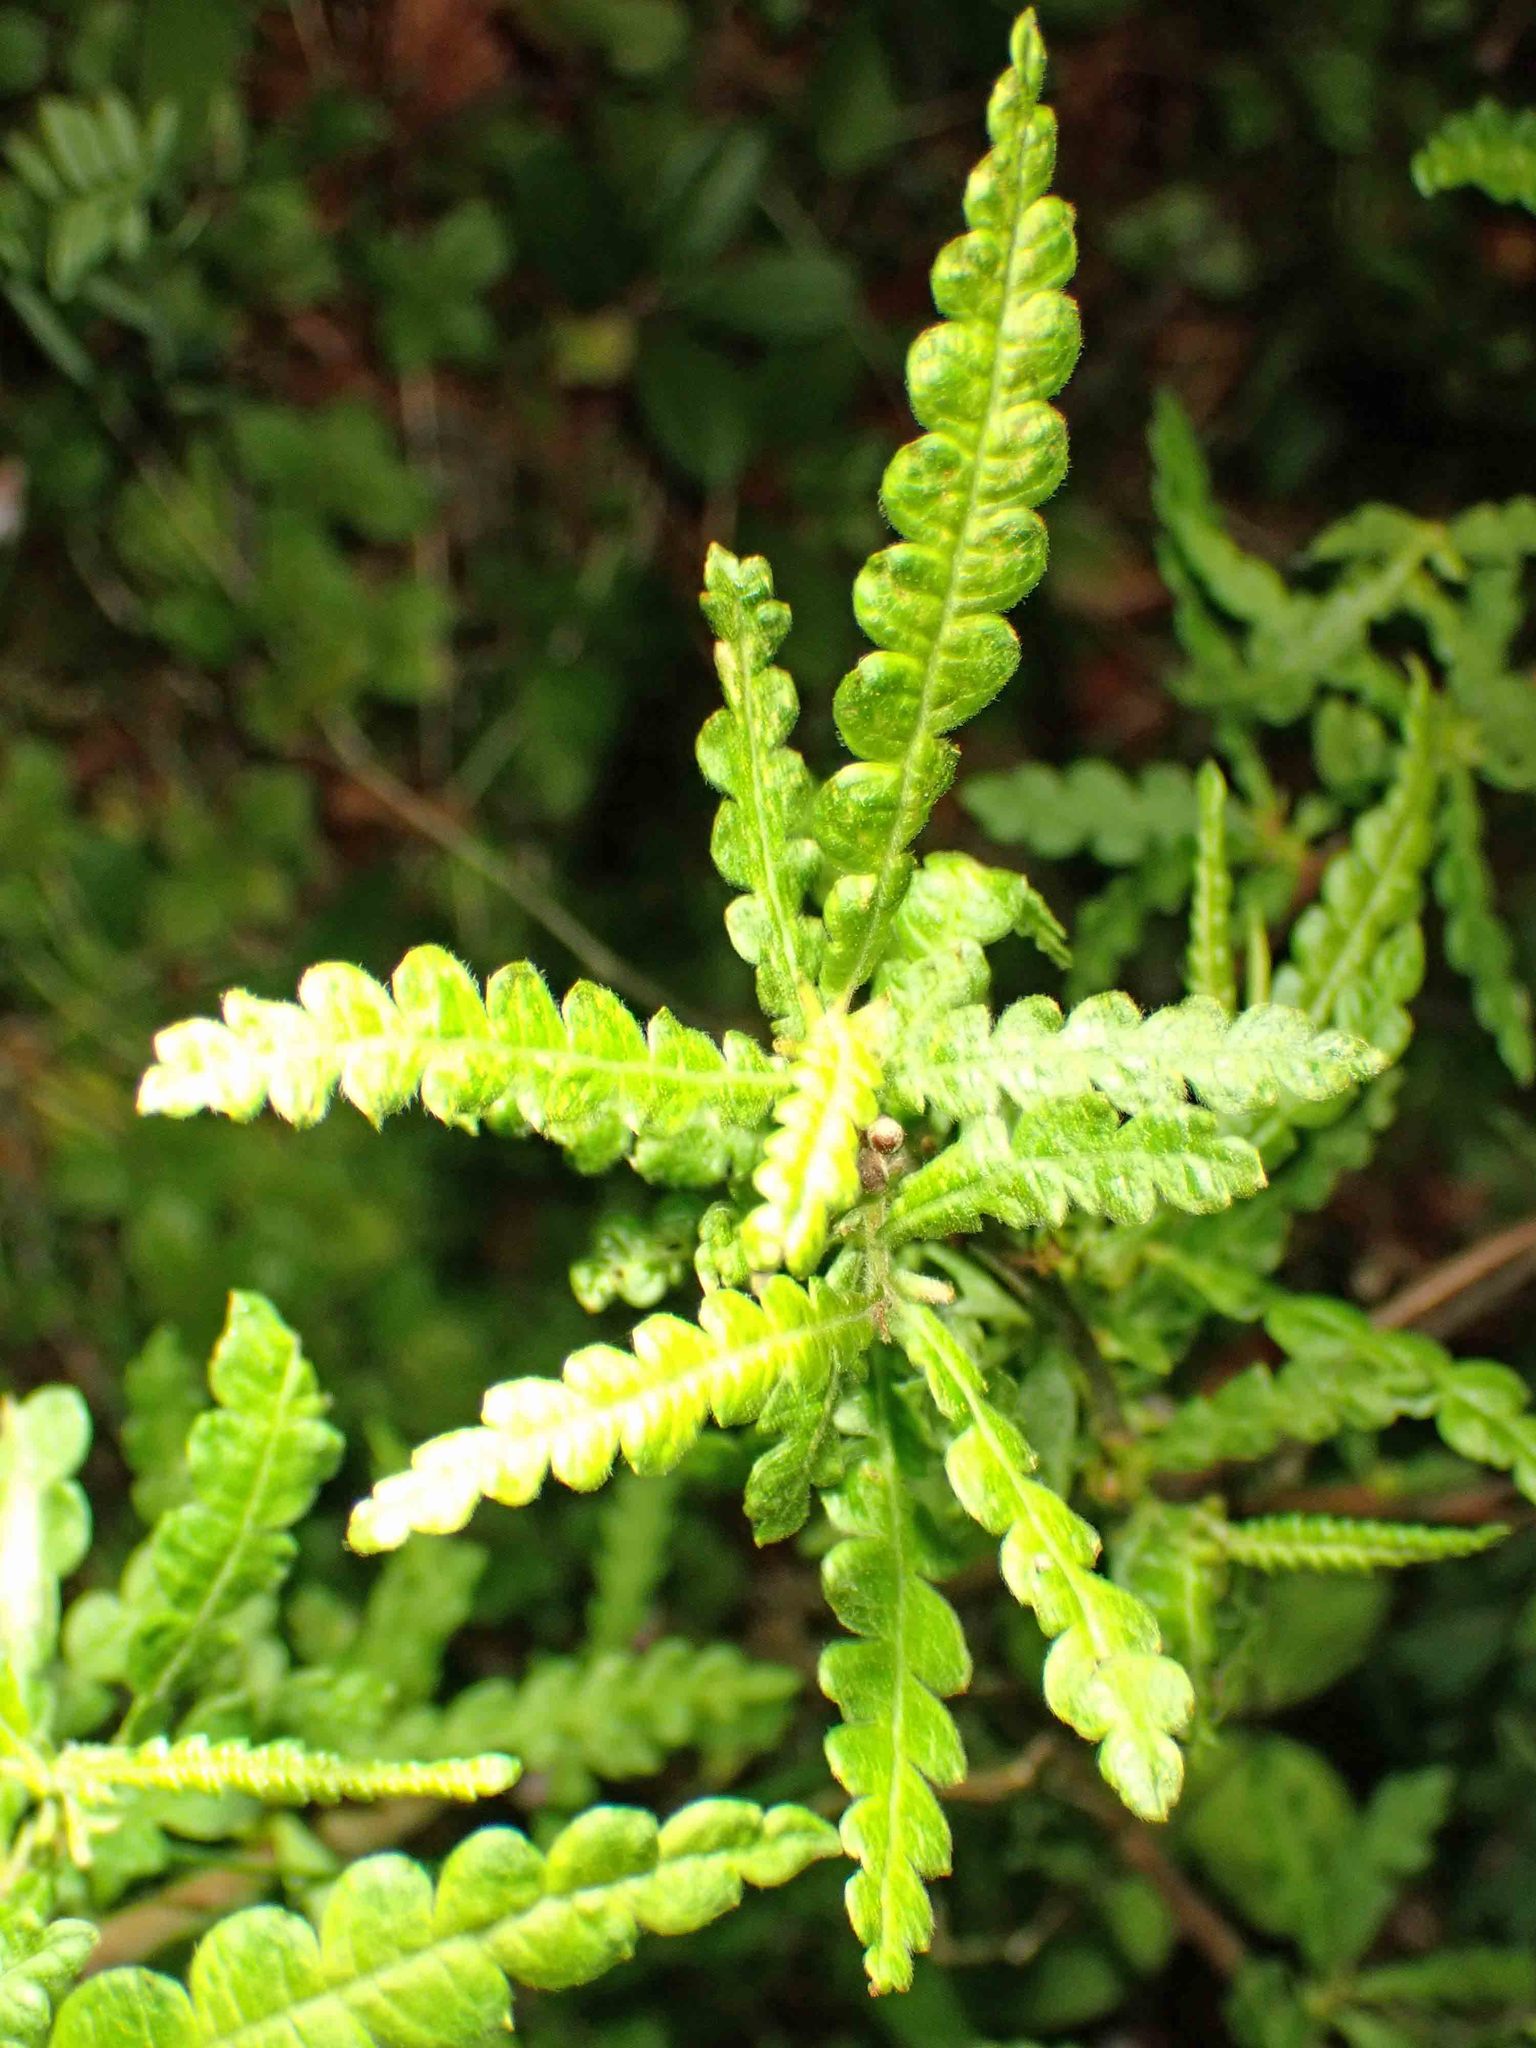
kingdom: Plantae
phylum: Tracheophyta
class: Magnoliopsida
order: Fagales
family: Myricaceae
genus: Comptonia
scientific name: Comptonia peregrina
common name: Sweet-fern
